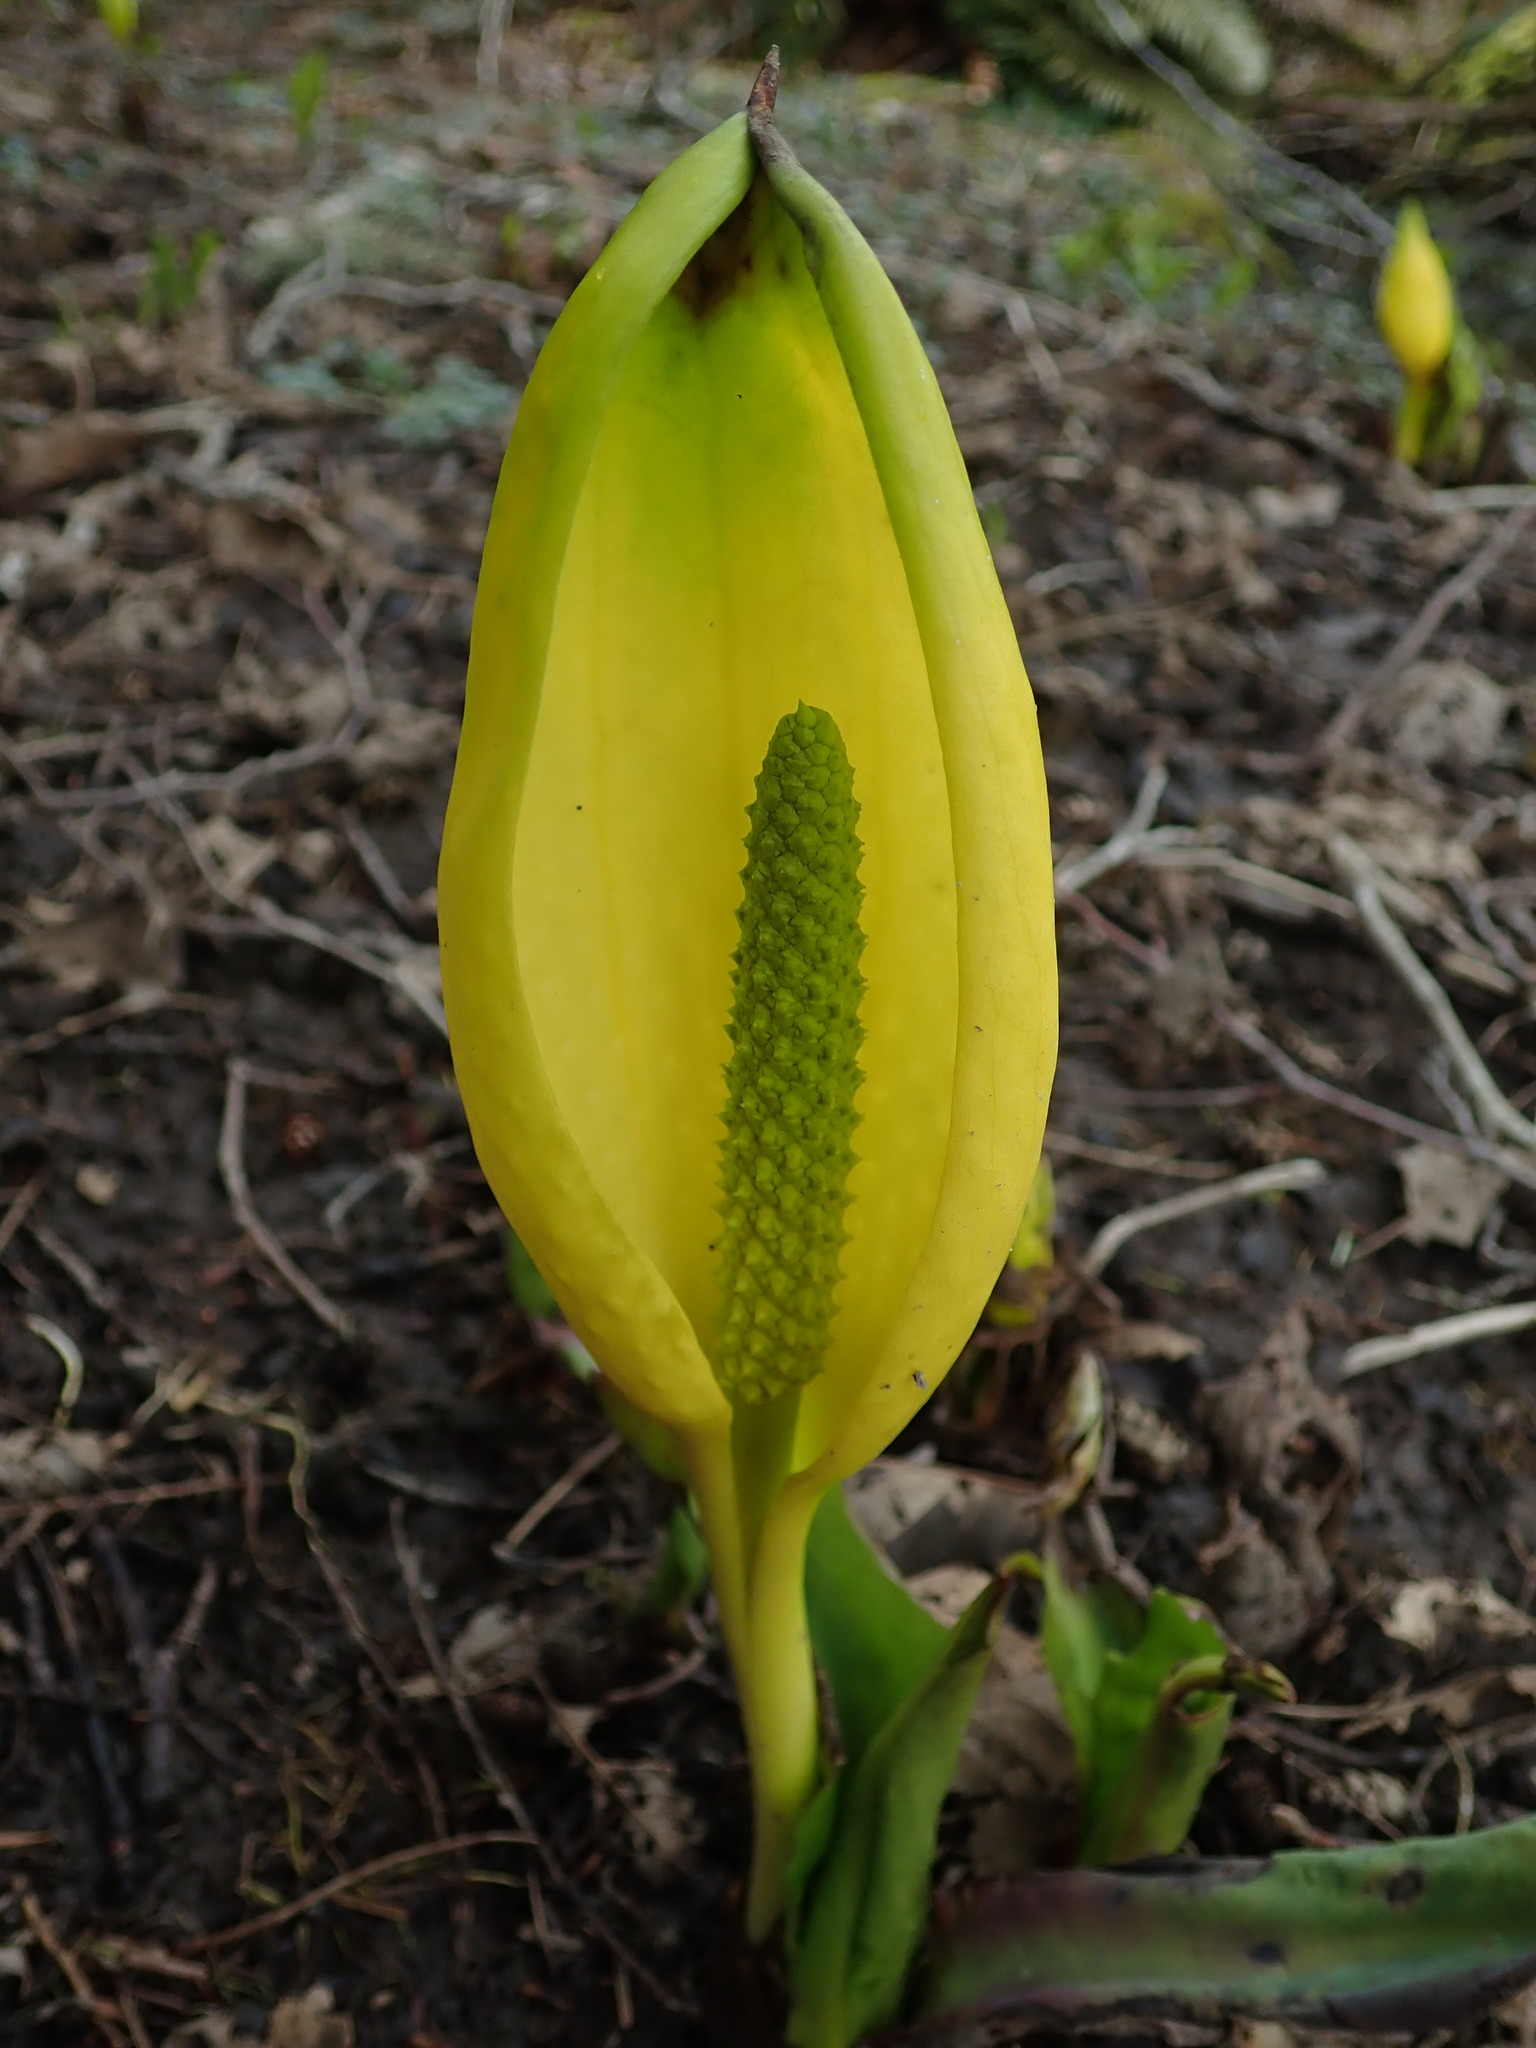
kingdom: Plantae
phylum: Tracheophyta
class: Liliopsida
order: Alismatales
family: Araceae
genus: Lysichiton
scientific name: Lysichiton americanus
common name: American skunk cabbage
